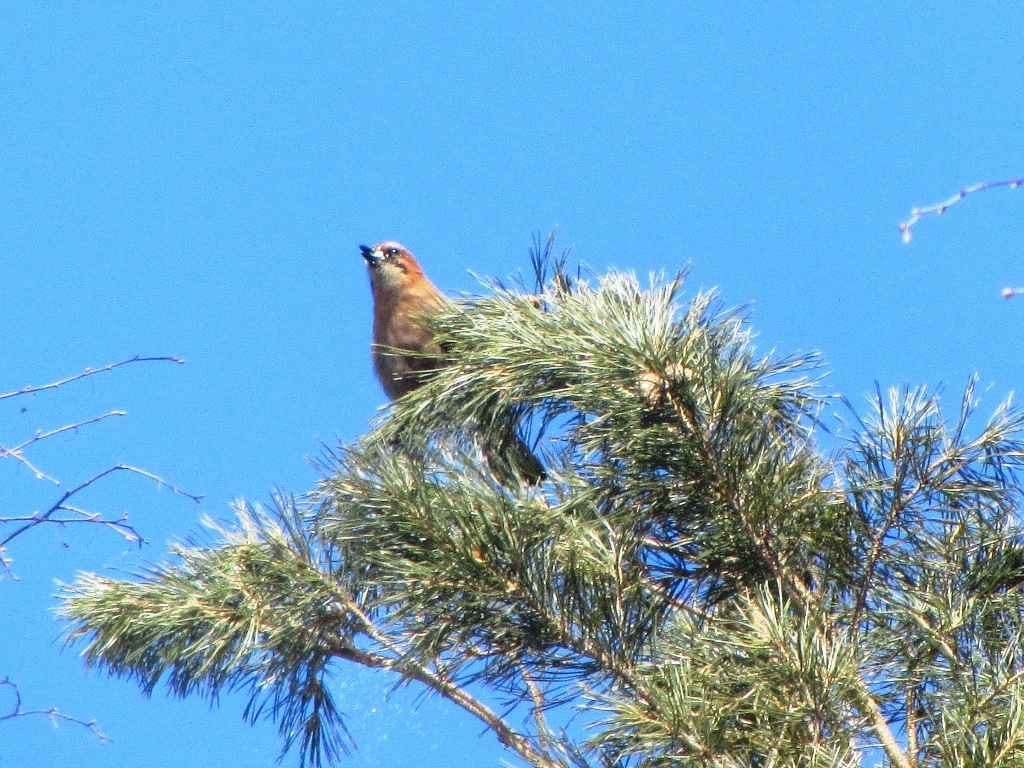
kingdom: Animalia
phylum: Chordata
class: Aves
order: Passeriformes
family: Corvidae
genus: Garrulus
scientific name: Garrulus glandarius
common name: Eurasian jay
